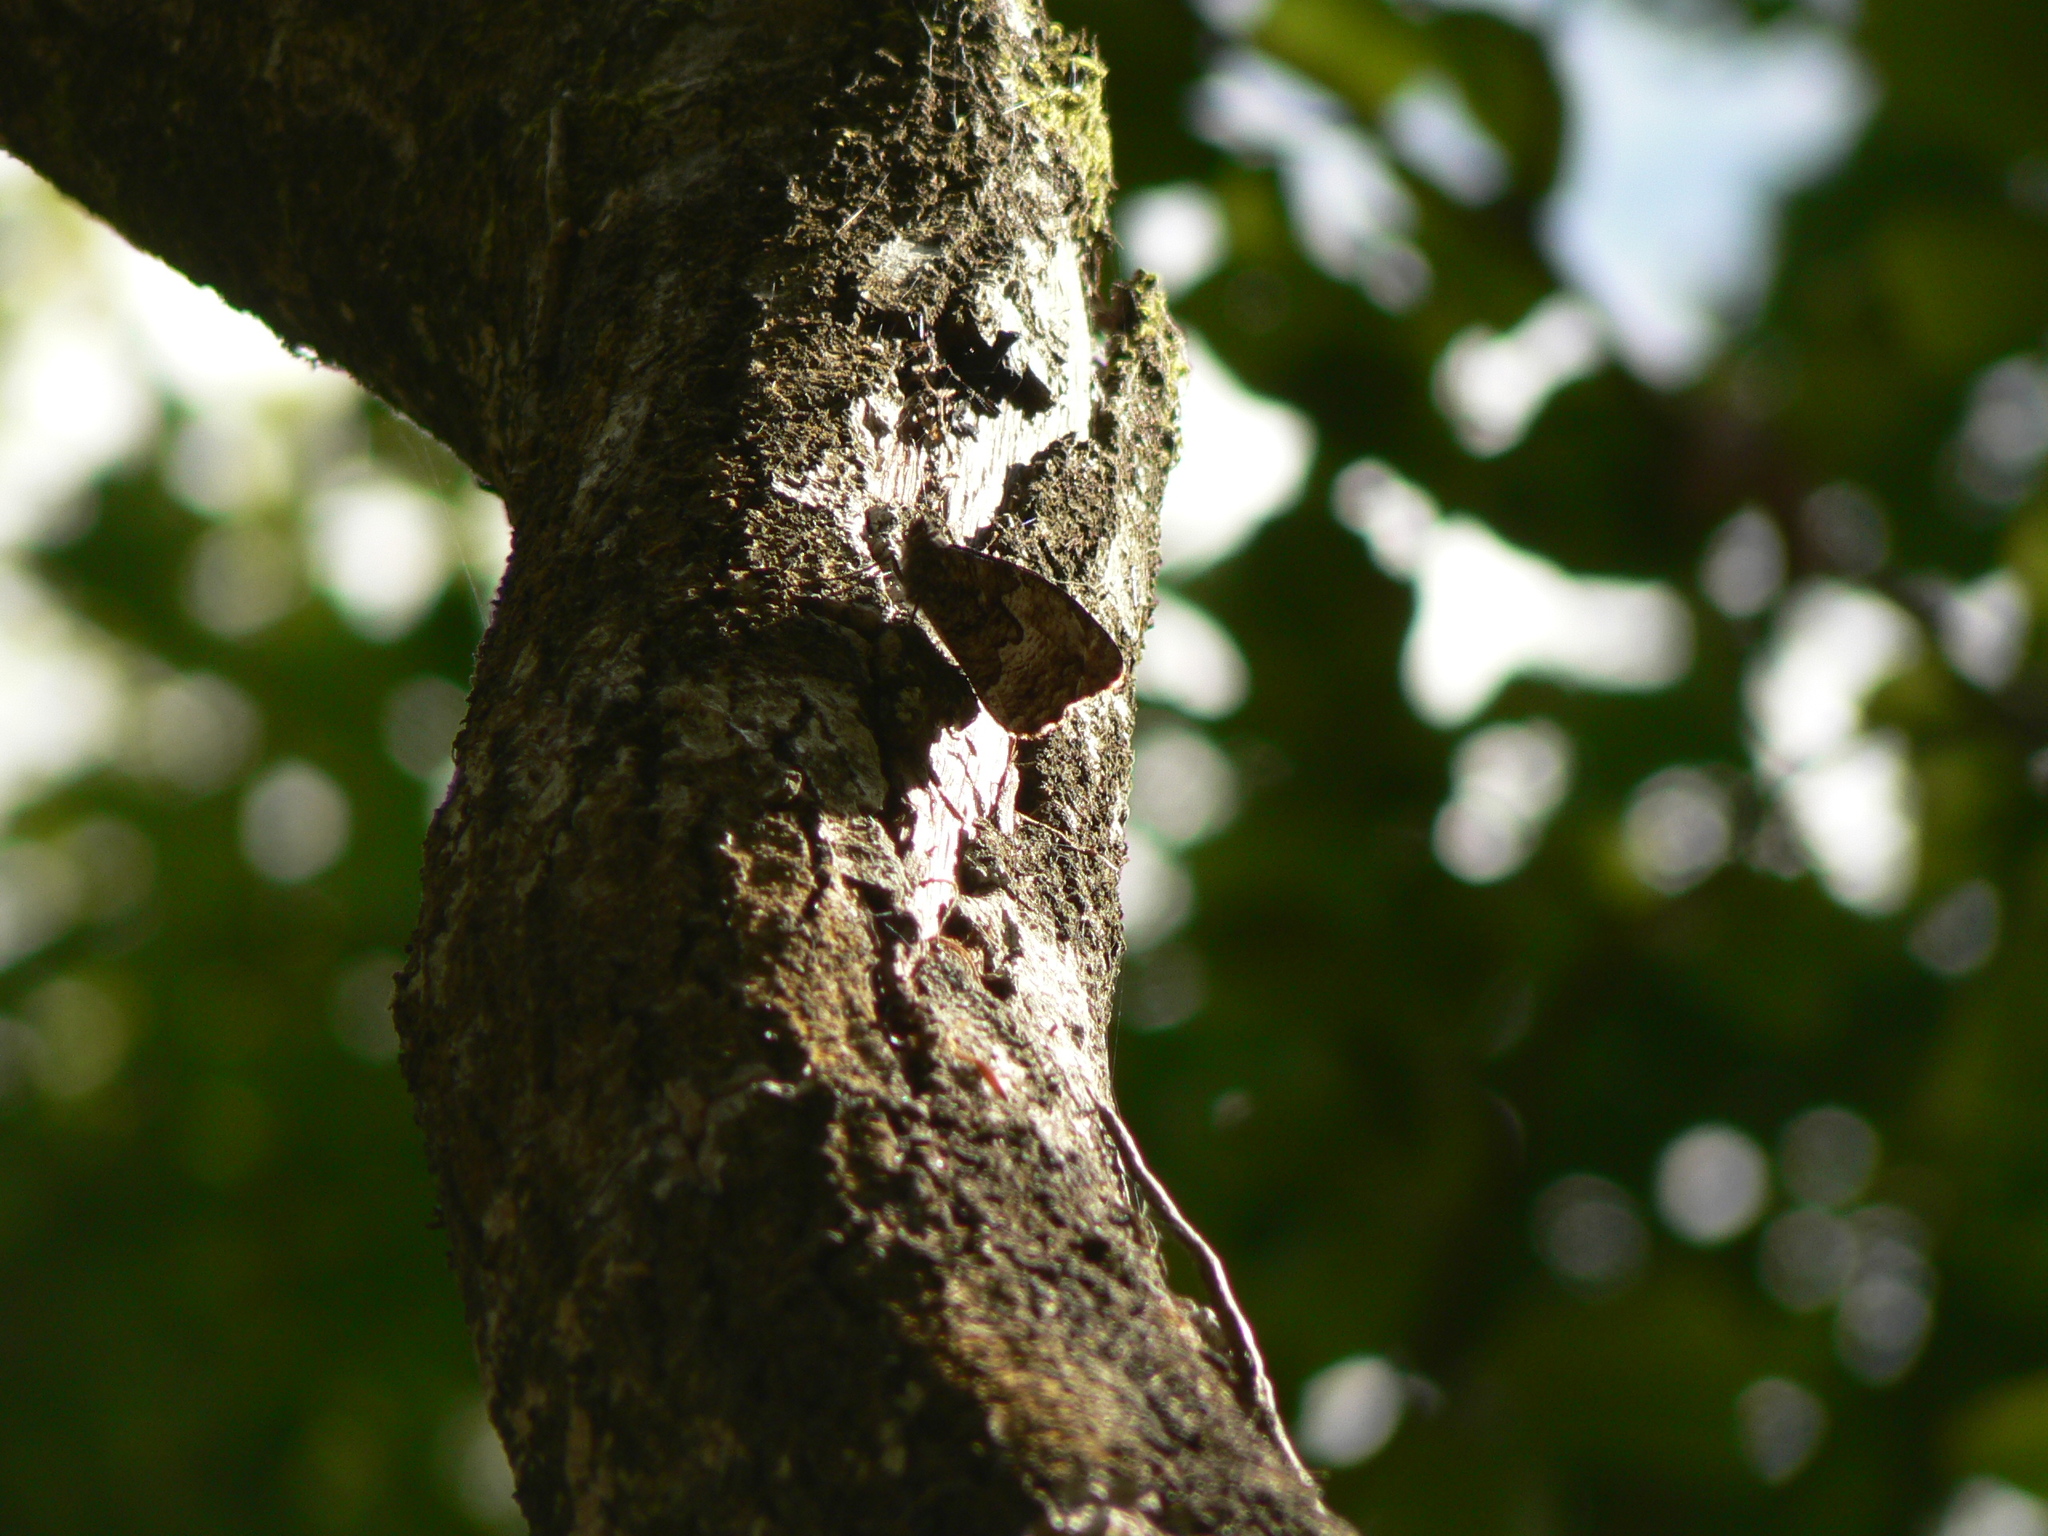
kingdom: Animalia
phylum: Arthropoda
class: Insecta
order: Lepidoptera
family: Nymphalidae
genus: Hipparchia
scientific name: Hipparchia semele
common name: Grayling
